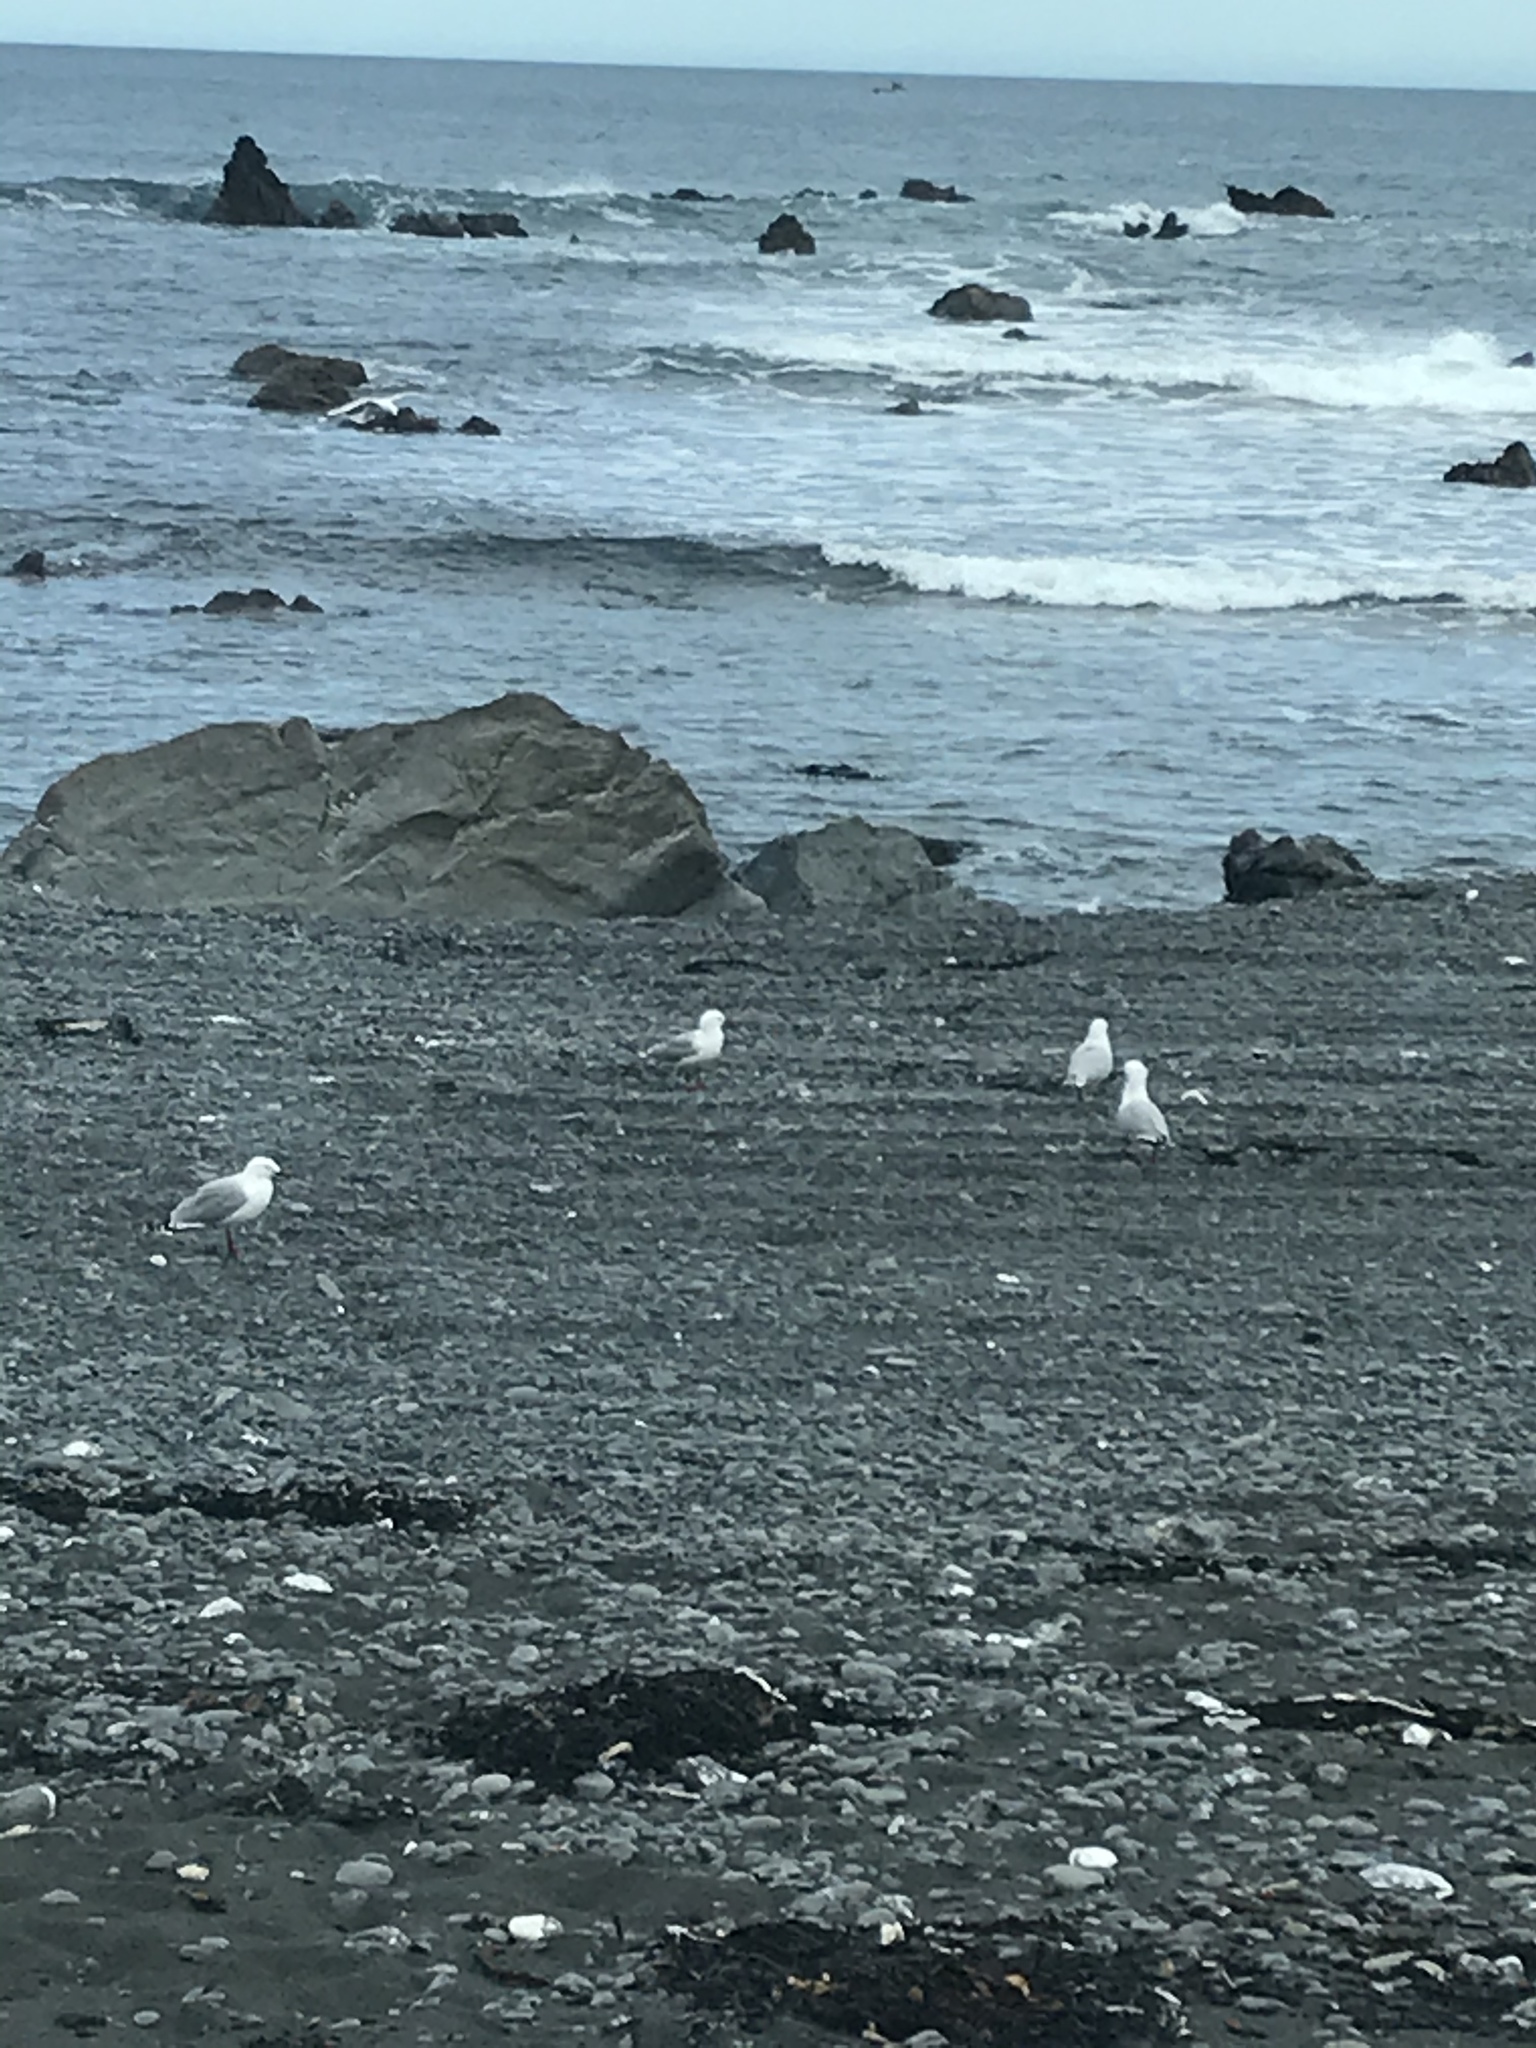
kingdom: Animalia
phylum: Chordata
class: Aves
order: Charadriiformes
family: Laridae
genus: Chroicocephalus
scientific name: Chroicocephalus novaehollandiae
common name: Silver gull
